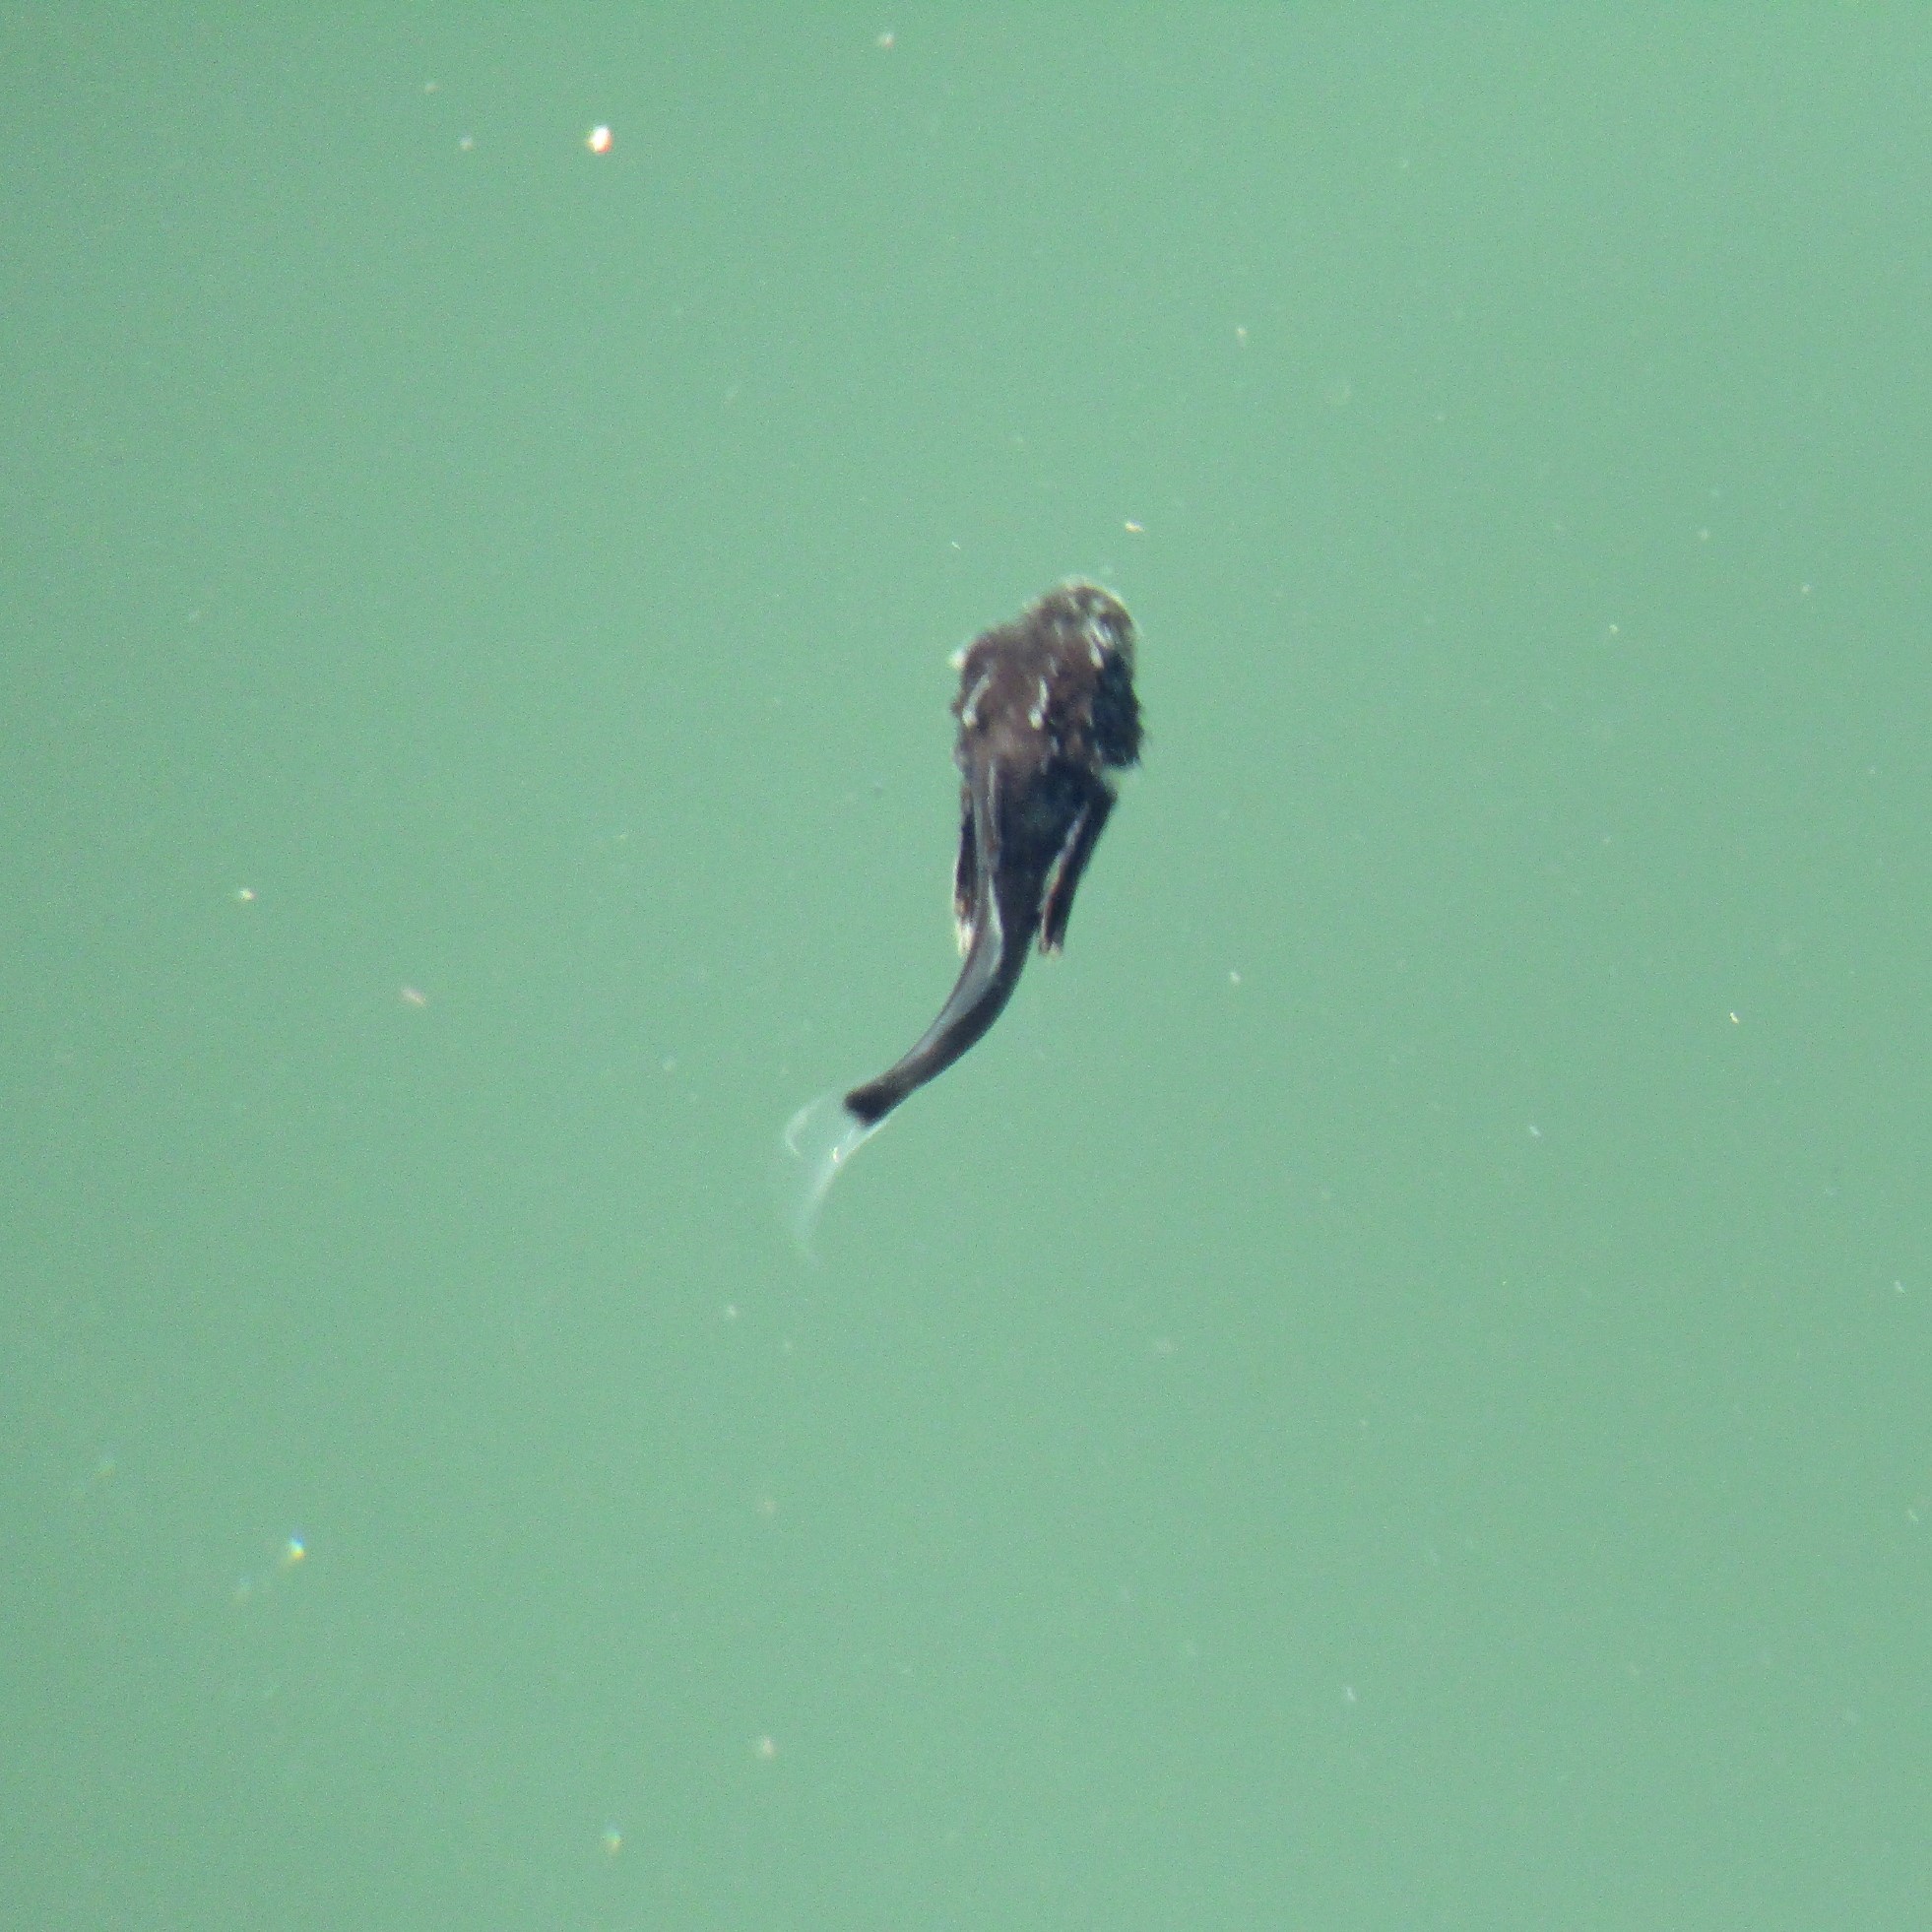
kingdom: Animalia
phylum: Chordata
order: Scorpaeniformes
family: Triglidae
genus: Chelidonichthys
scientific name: Chelidonichthys kumu
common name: Bluefin gurnard
